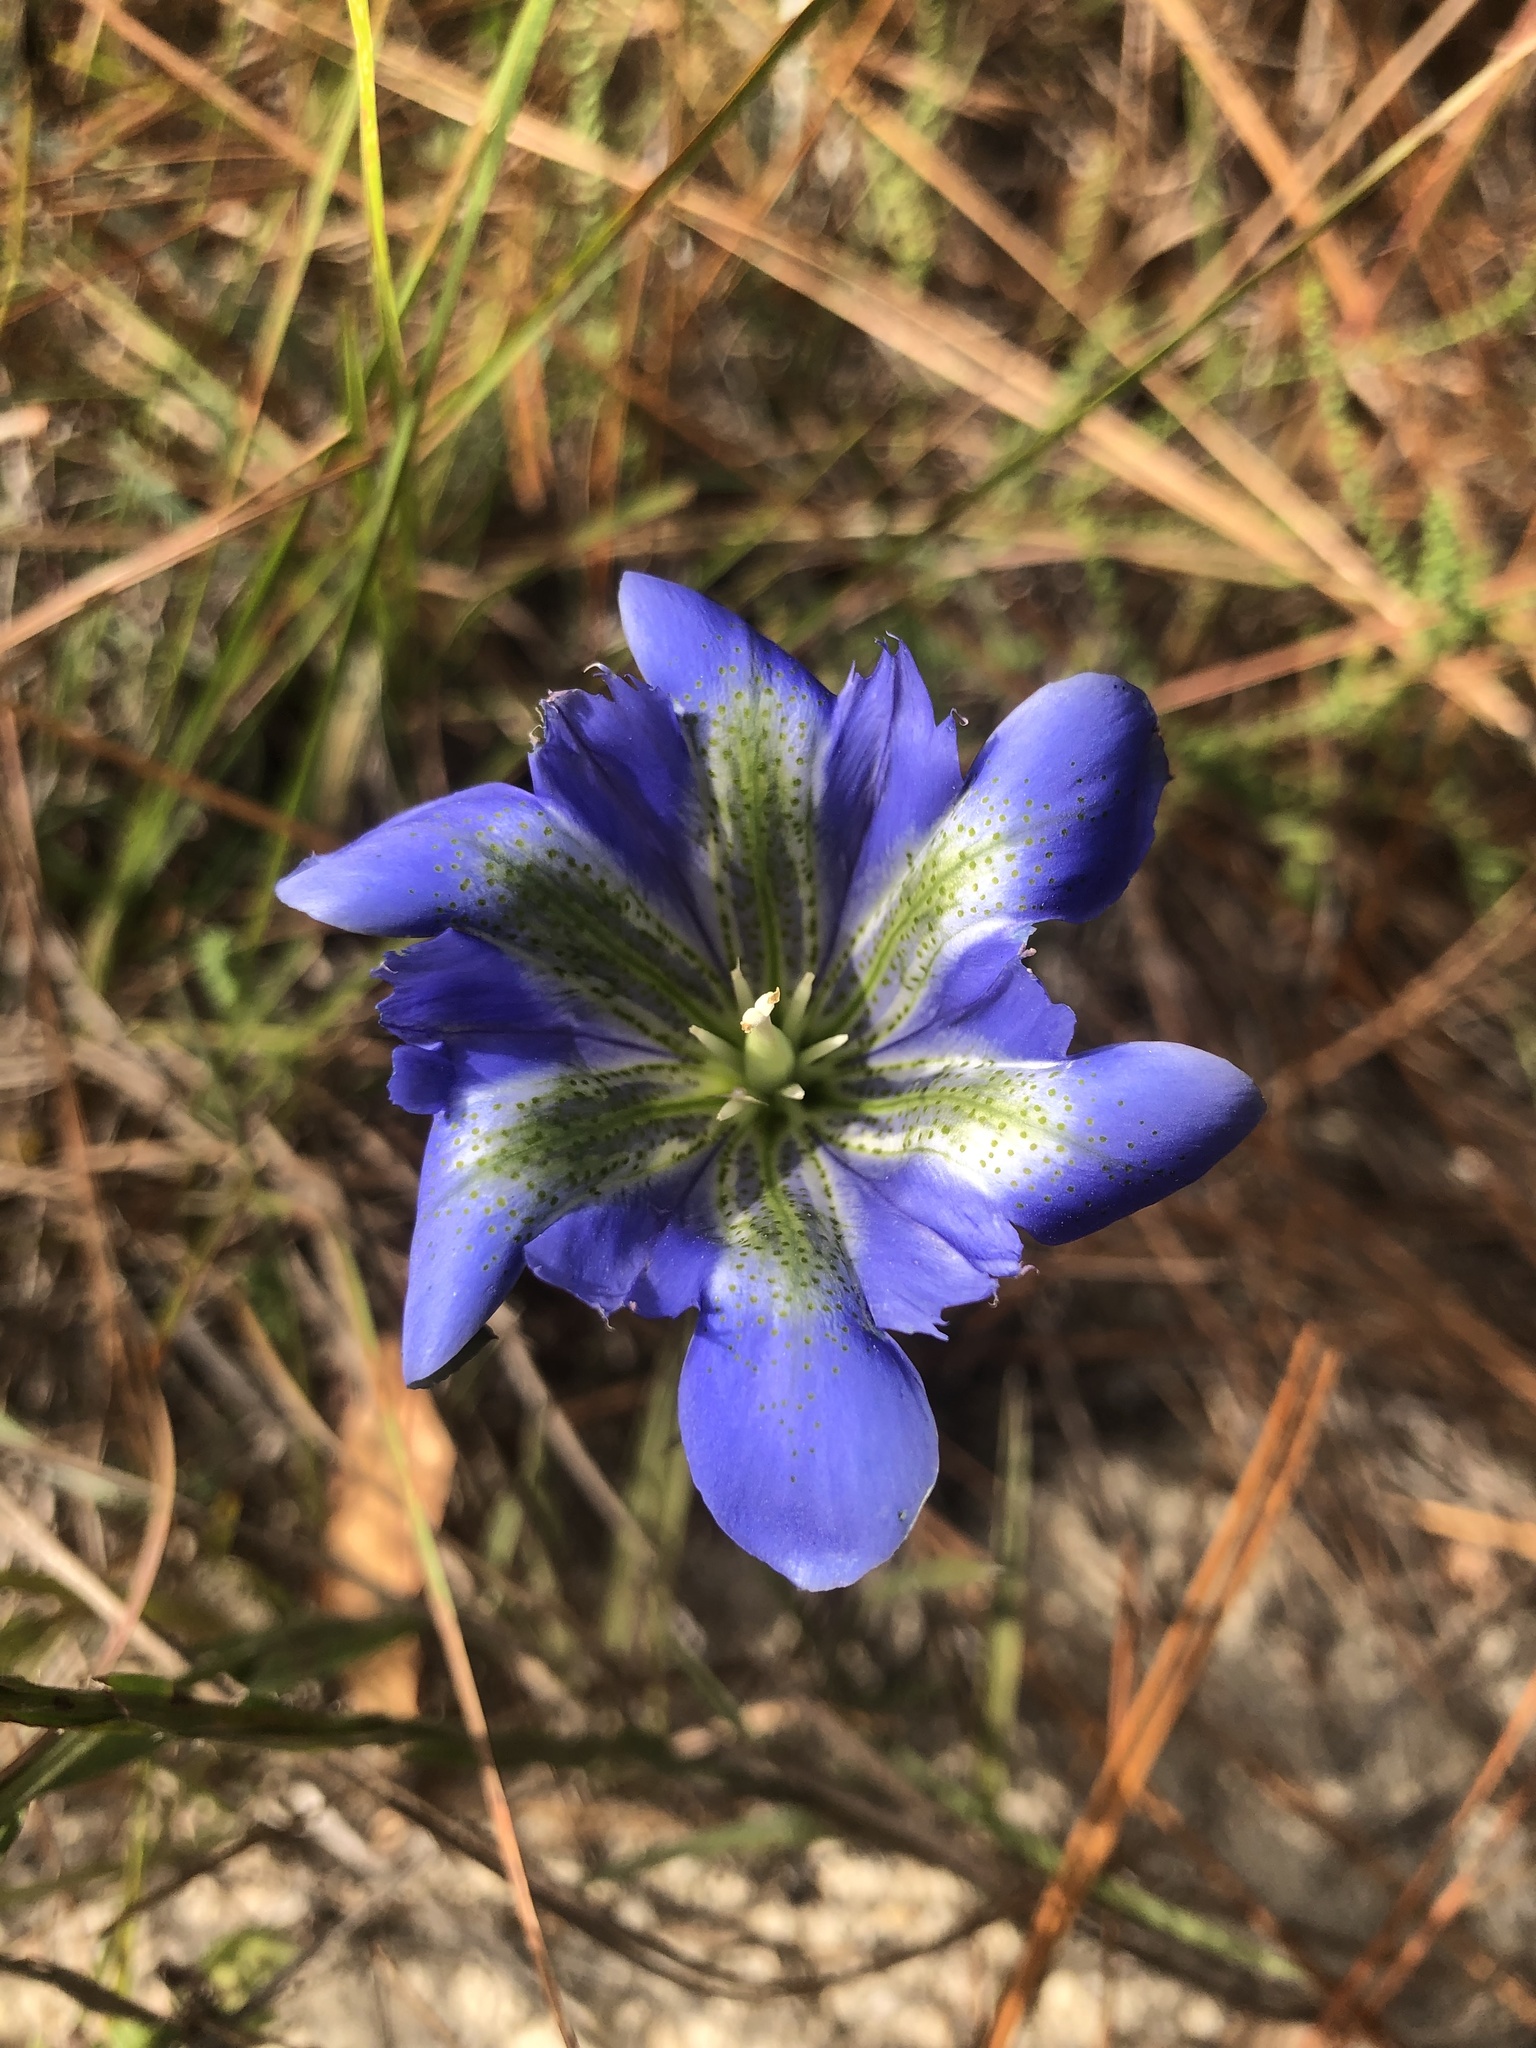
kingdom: Plantae
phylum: Tracheophyta
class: Magnoliopsida
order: Gentianales
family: Gentianaceae
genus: Gentiana
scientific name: Gentiana autumnalis
